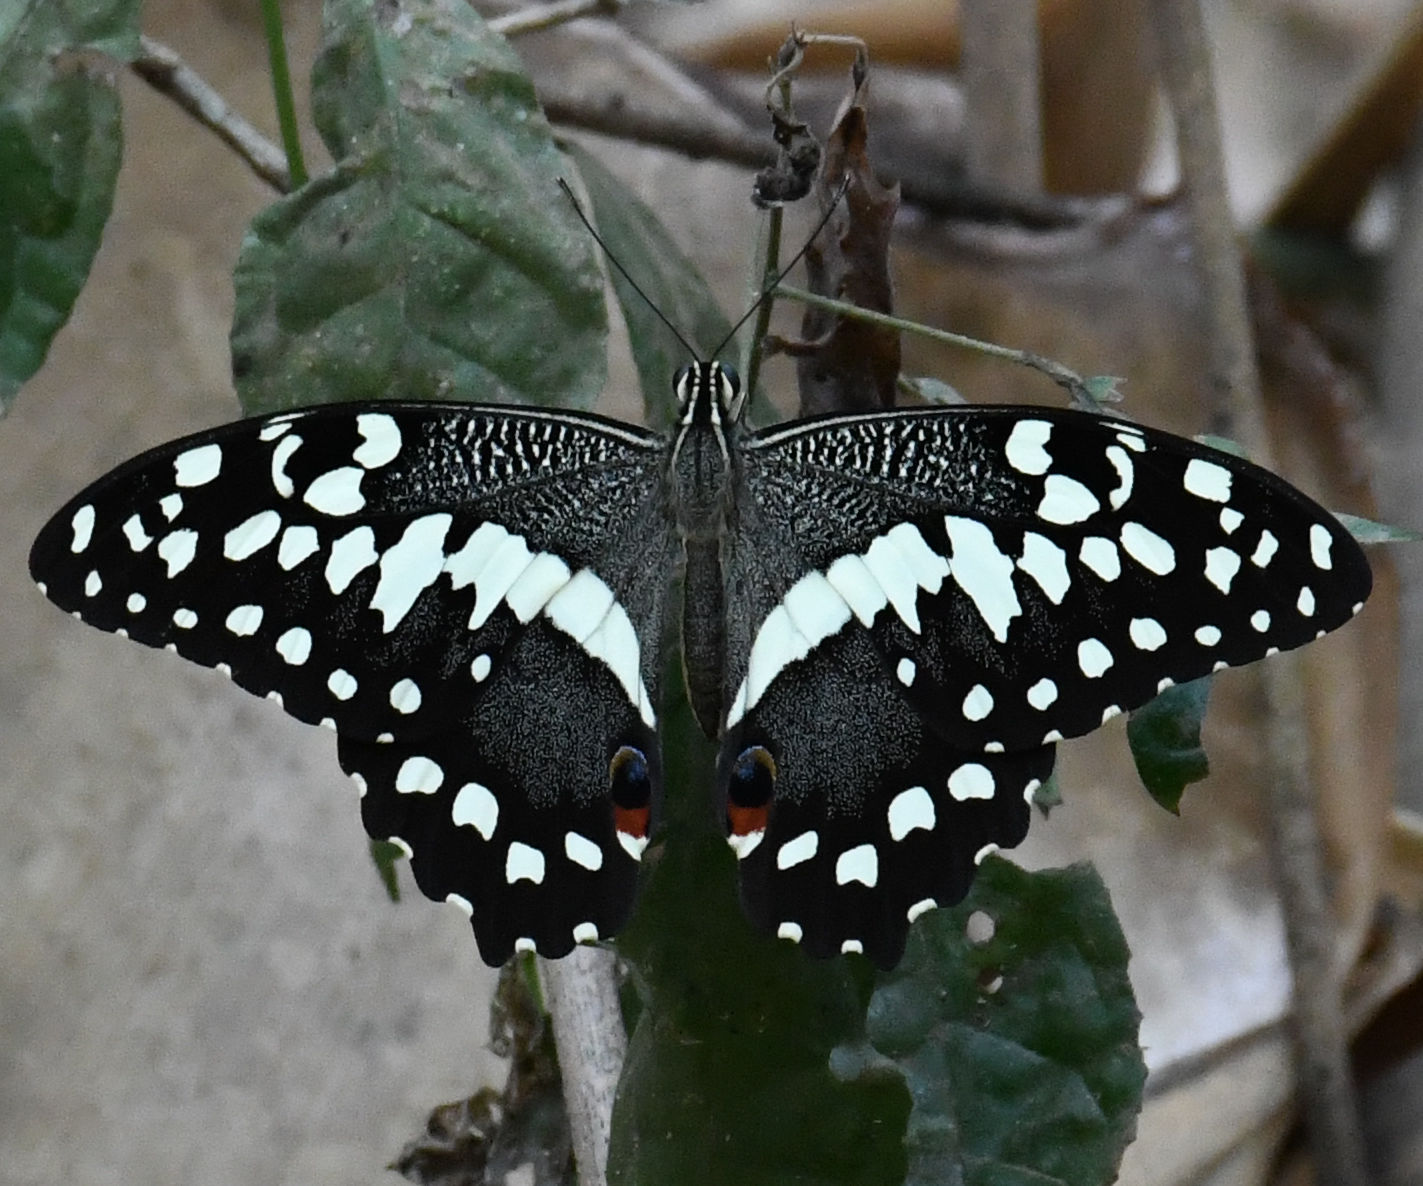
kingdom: Animalia
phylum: Arthropoda
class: Insecta
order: Lepidoptera
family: Papilionidae
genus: Papilio
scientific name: Papilio demodocus
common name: Christmas butterfly
